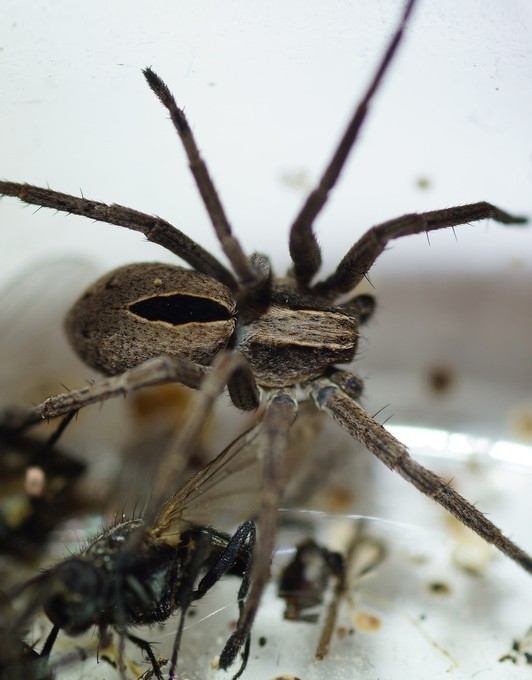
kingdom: Animalia
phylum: Arthropoda
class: Arachnida
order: Araneae
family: Philodromidae
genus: Thanatus
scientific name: Thanatus formicinus
